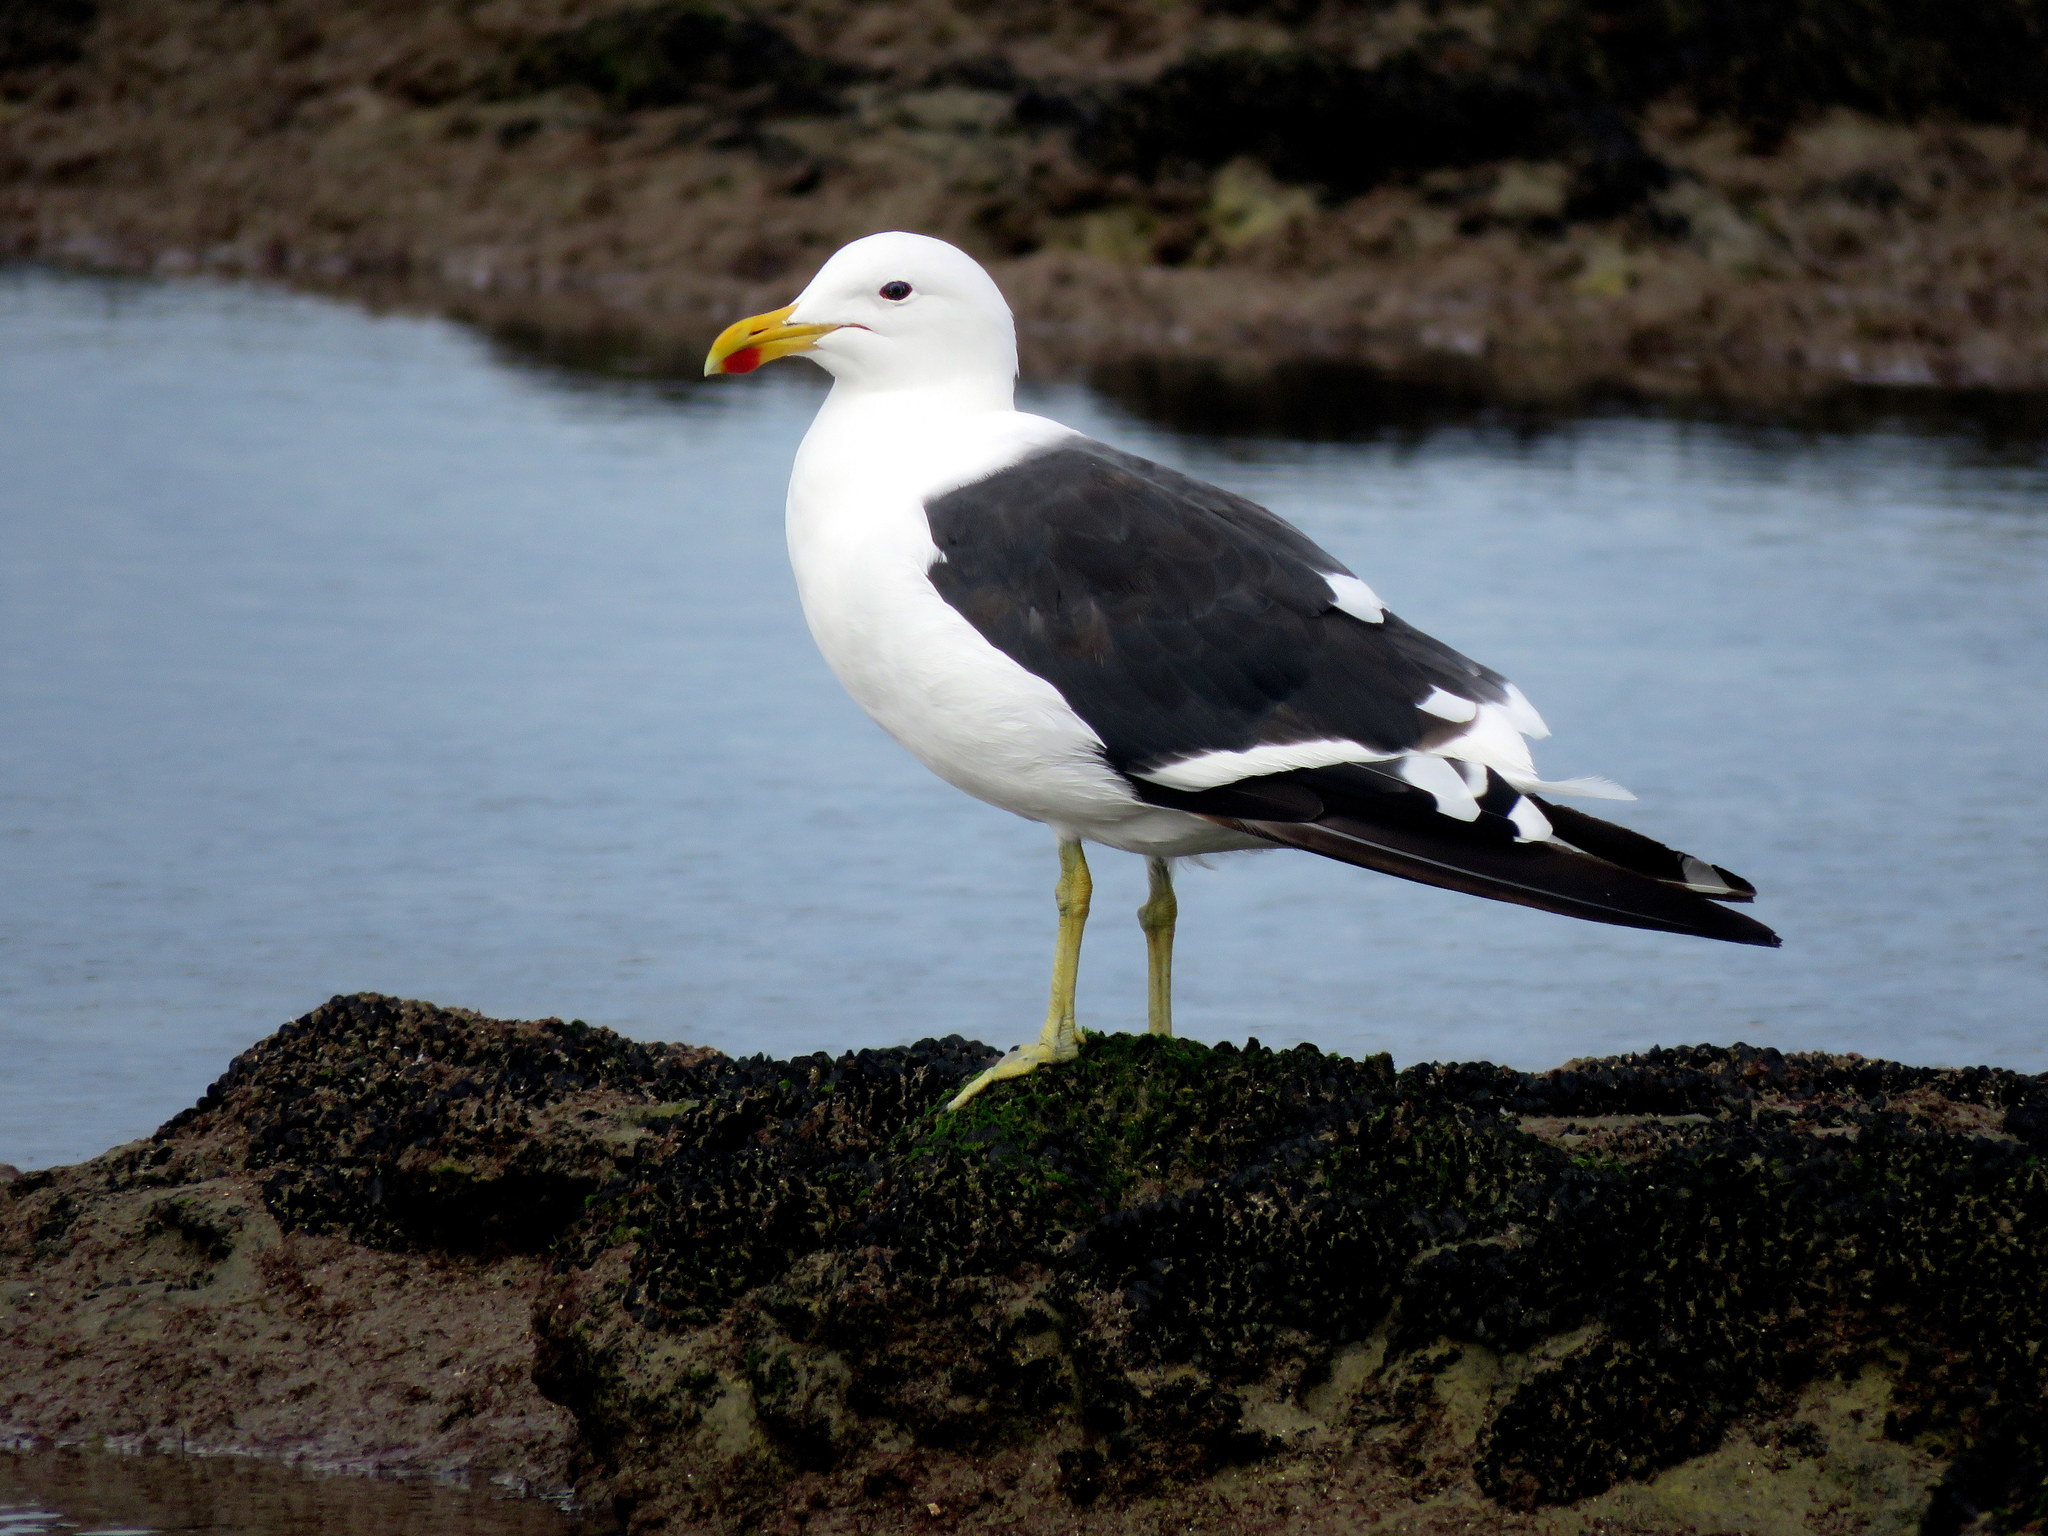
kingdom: Animalia
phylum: Chordata
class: Aves
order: Charadriiformes
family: Laridae
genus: Larus
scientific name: Larus dominicanus
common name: Kelp gull
